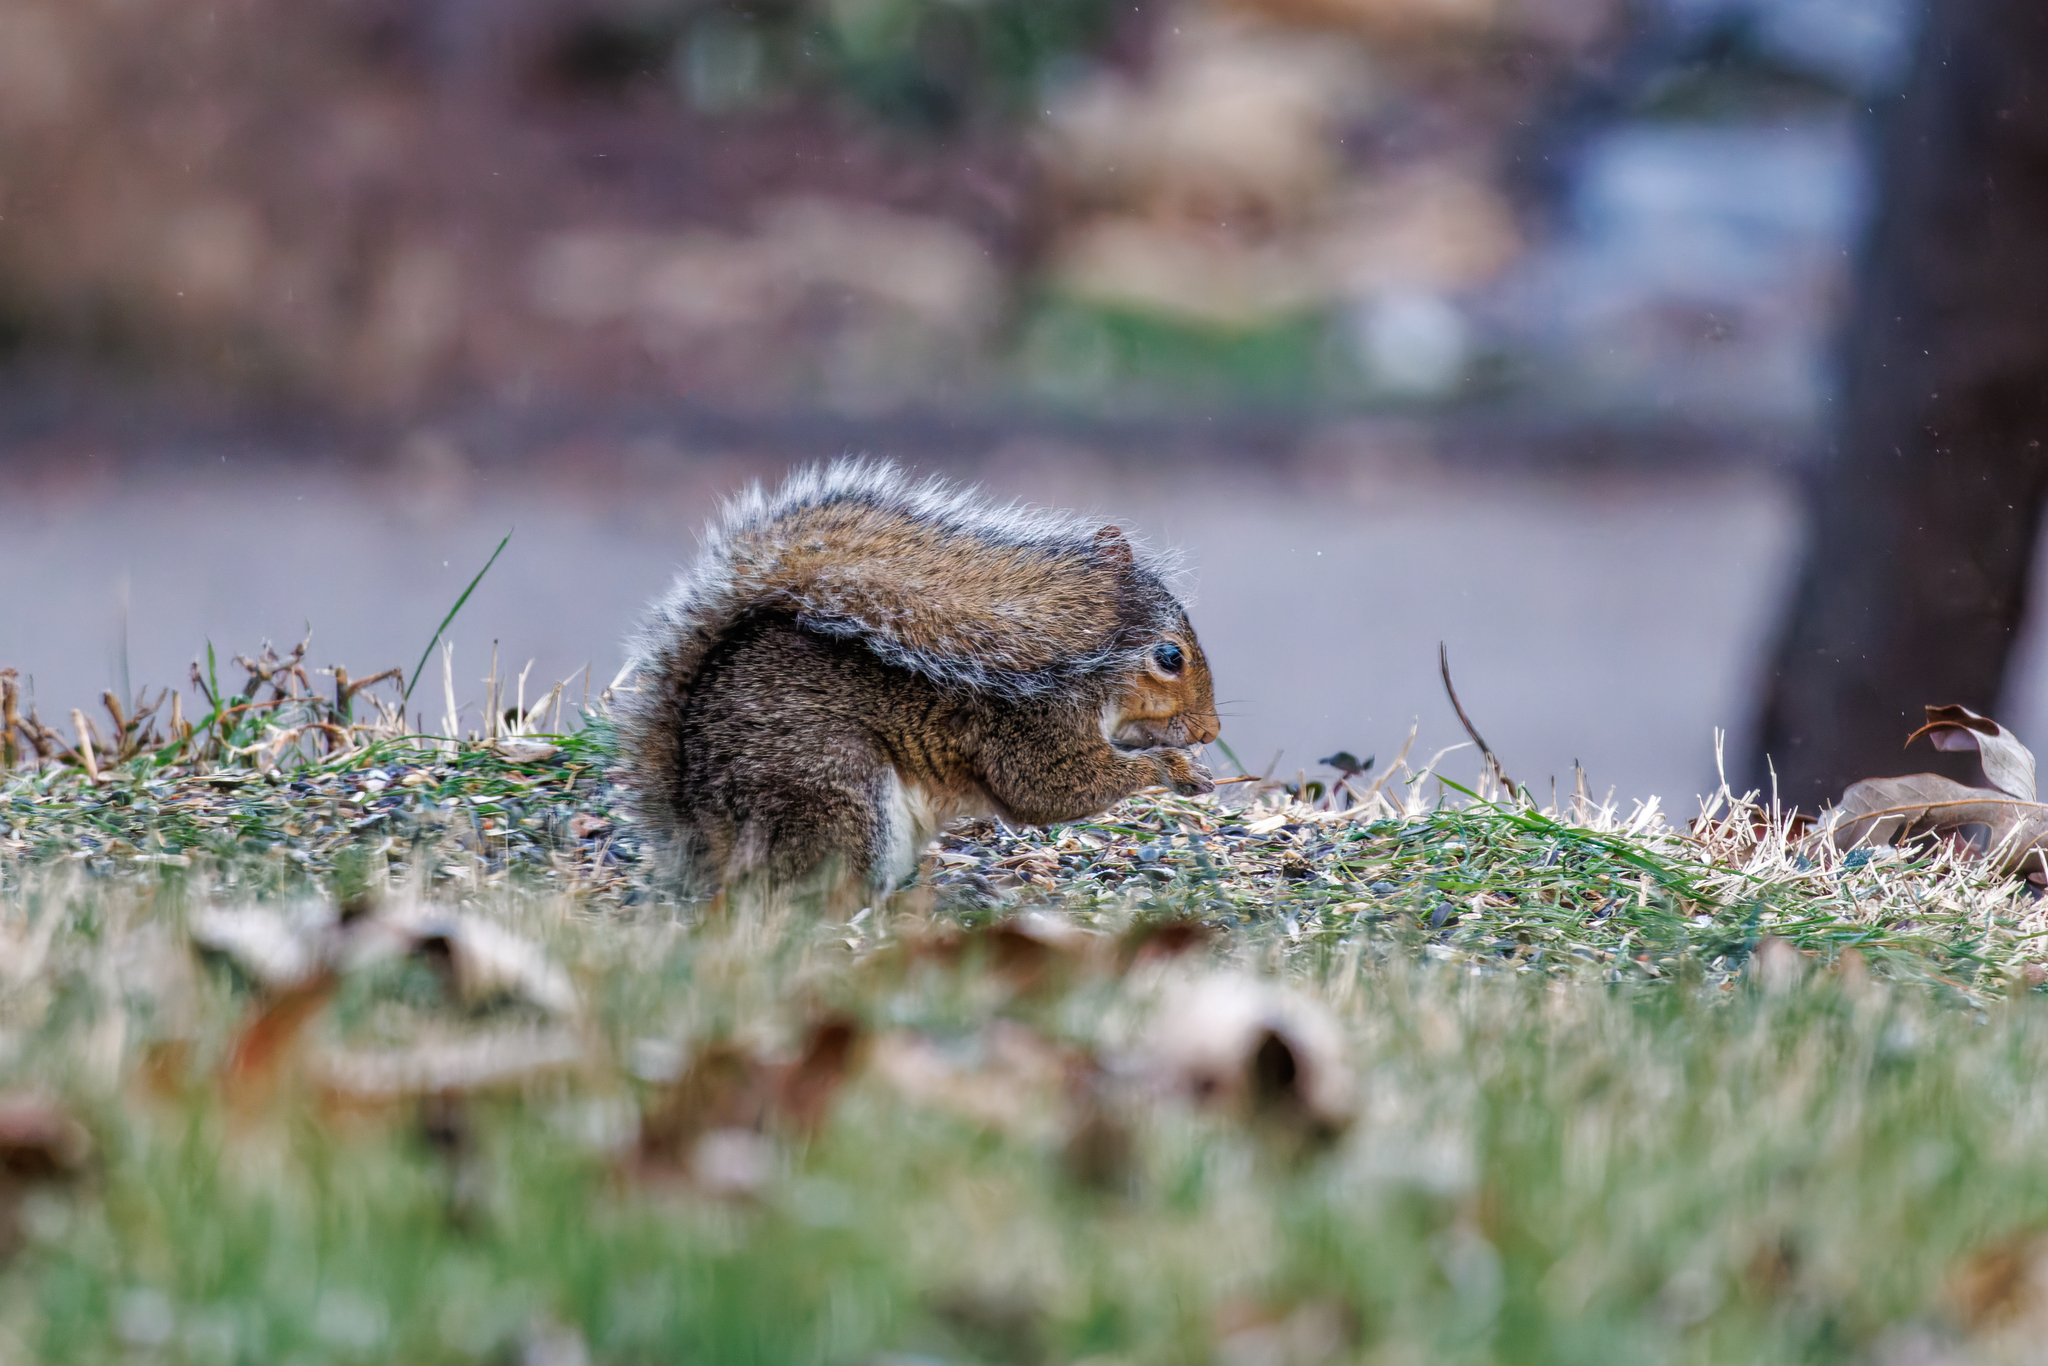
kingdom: Animalia
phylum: Chordata
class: Mammalia
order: Rodentia
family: Sciuridae
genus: Sciurus
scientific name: Sciurus carolinensis
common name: Eastern gray squirrel
